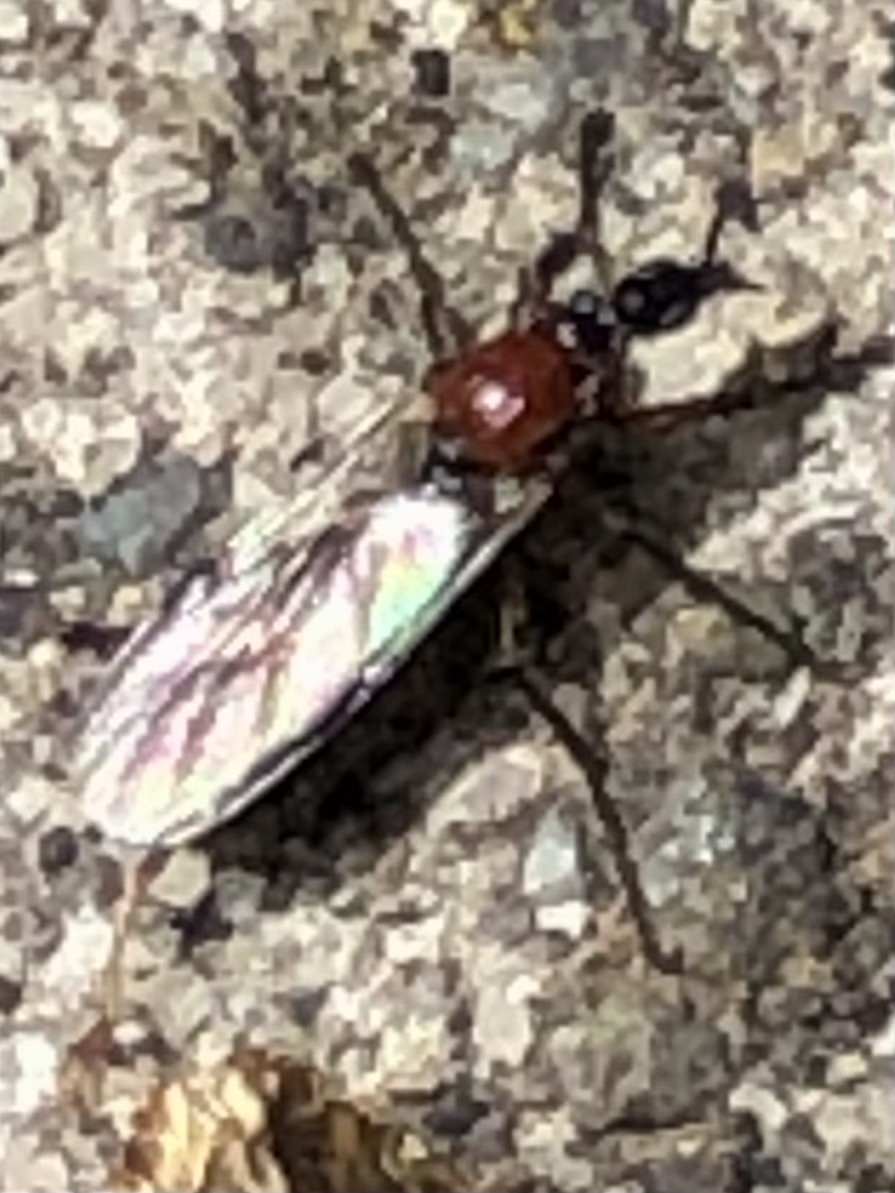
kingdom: Animalia
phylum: Arthropoda
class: Insecta
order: Diptera
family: Bibionidae
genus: Dilophus
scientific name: Dilophus strigilatus
